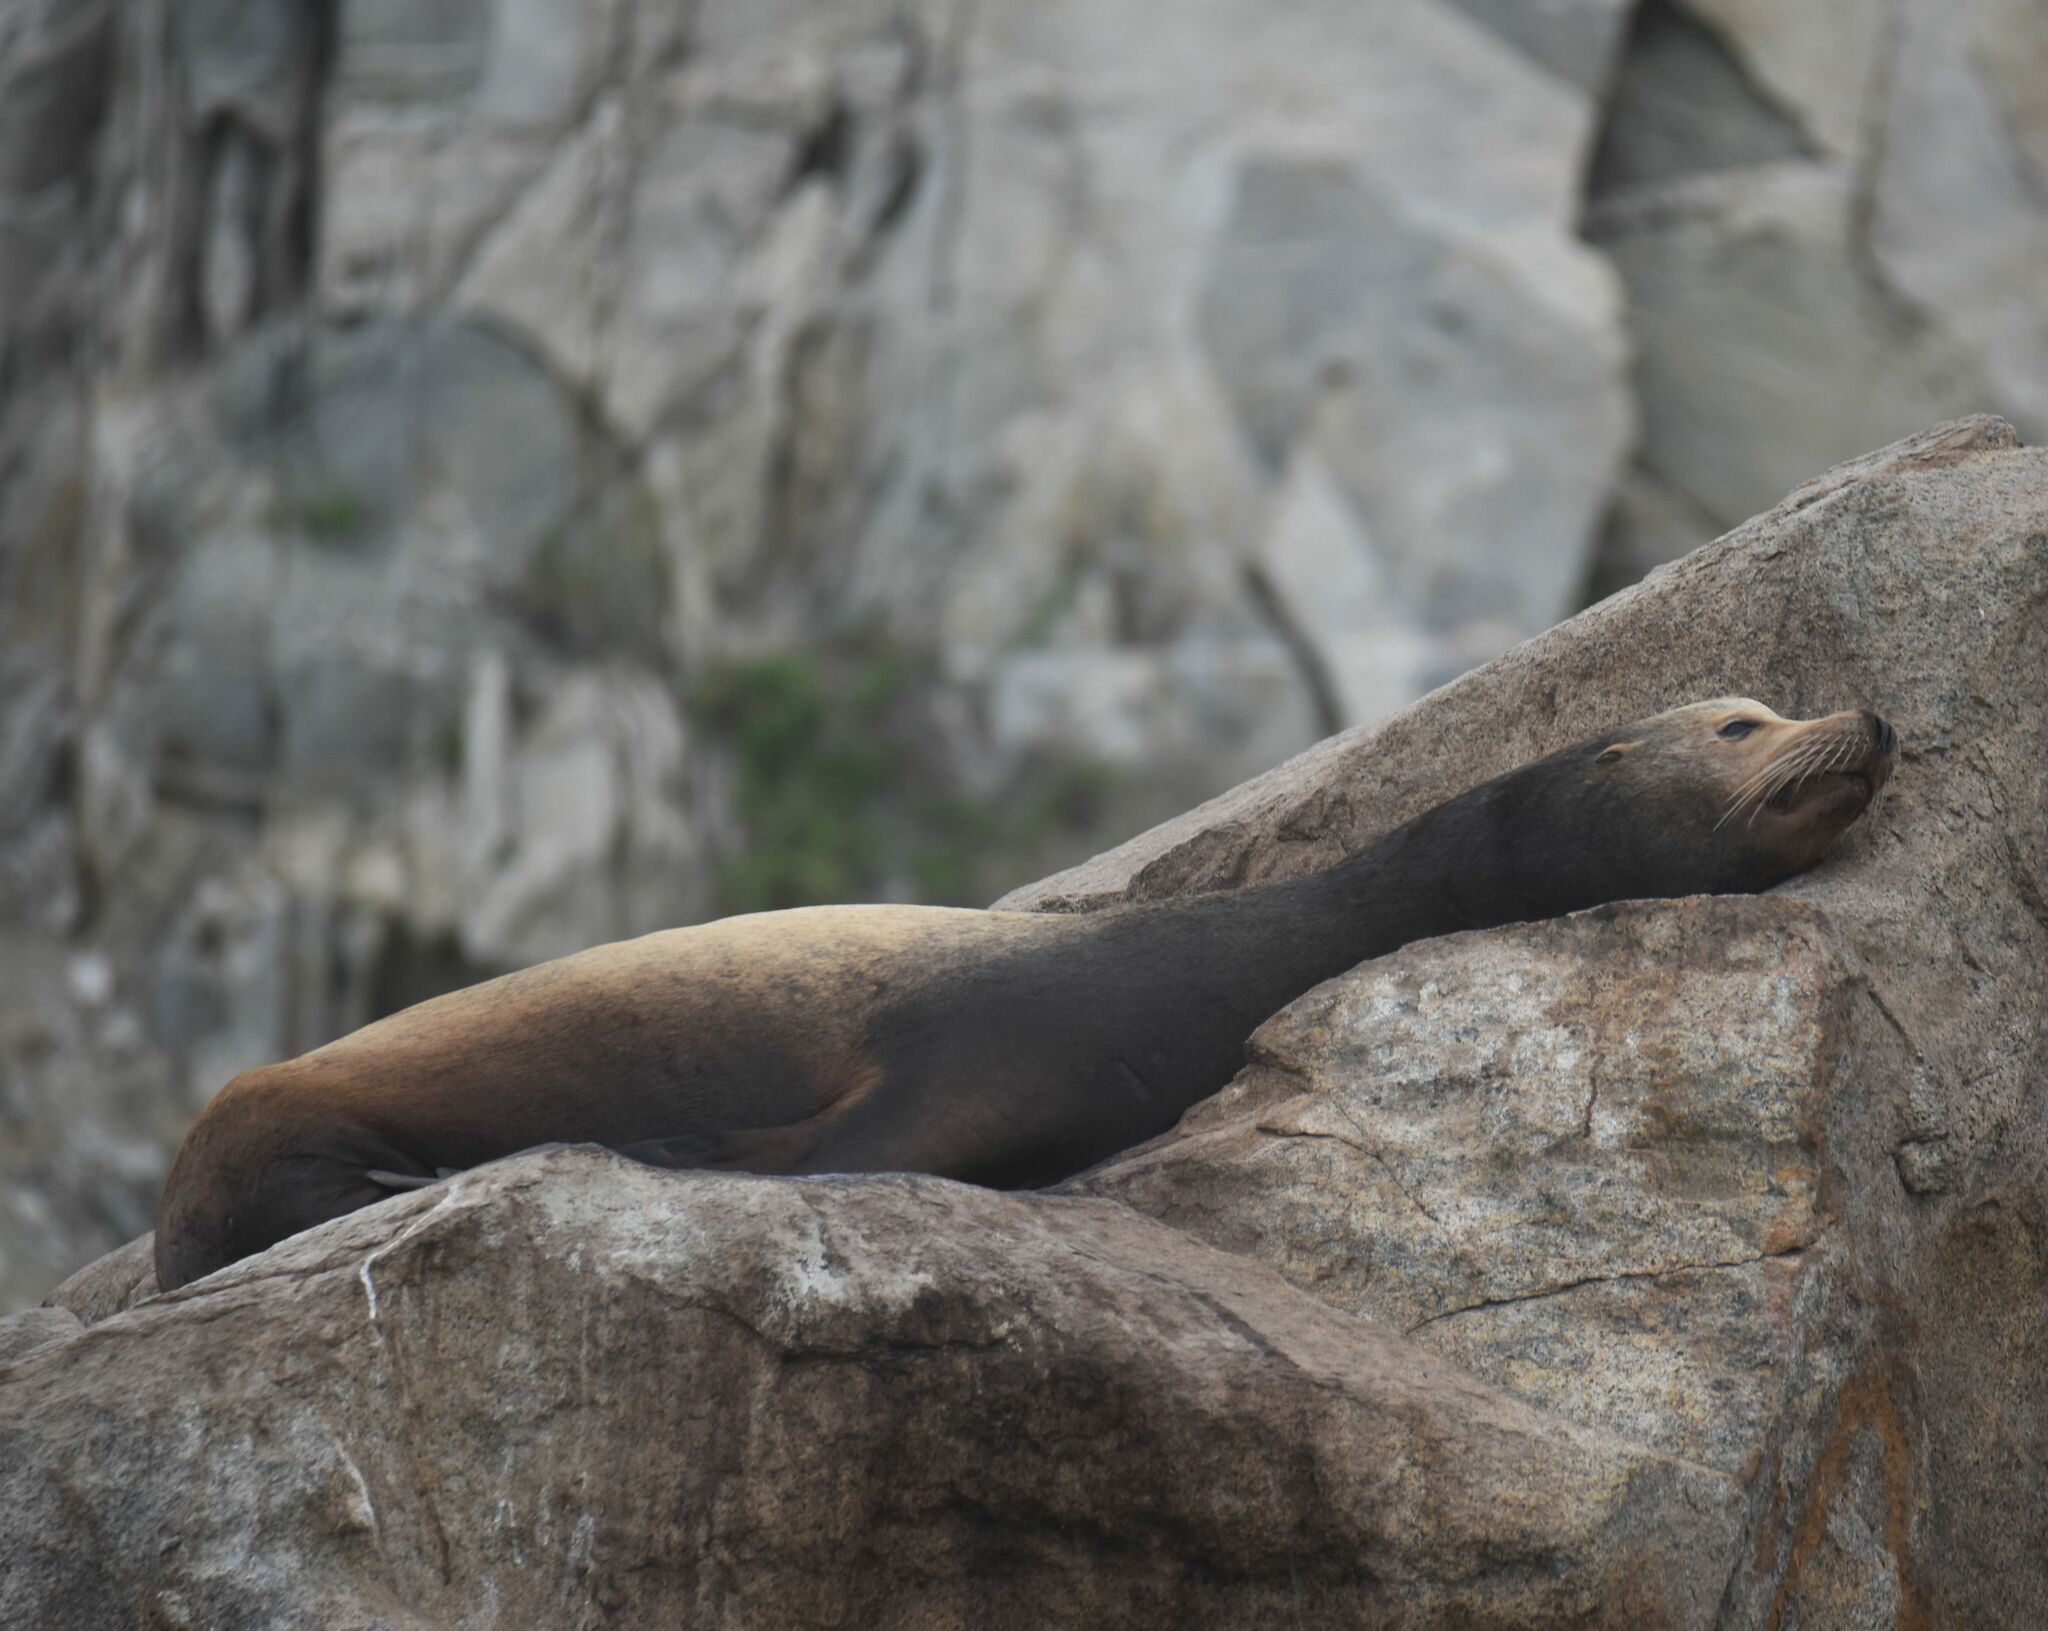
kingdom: Animalia
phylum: Chordata
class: Mammalia
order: Carnivora
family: Otariidae
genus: Zalophus
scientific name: Zalophus californianus
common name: California sea lion
